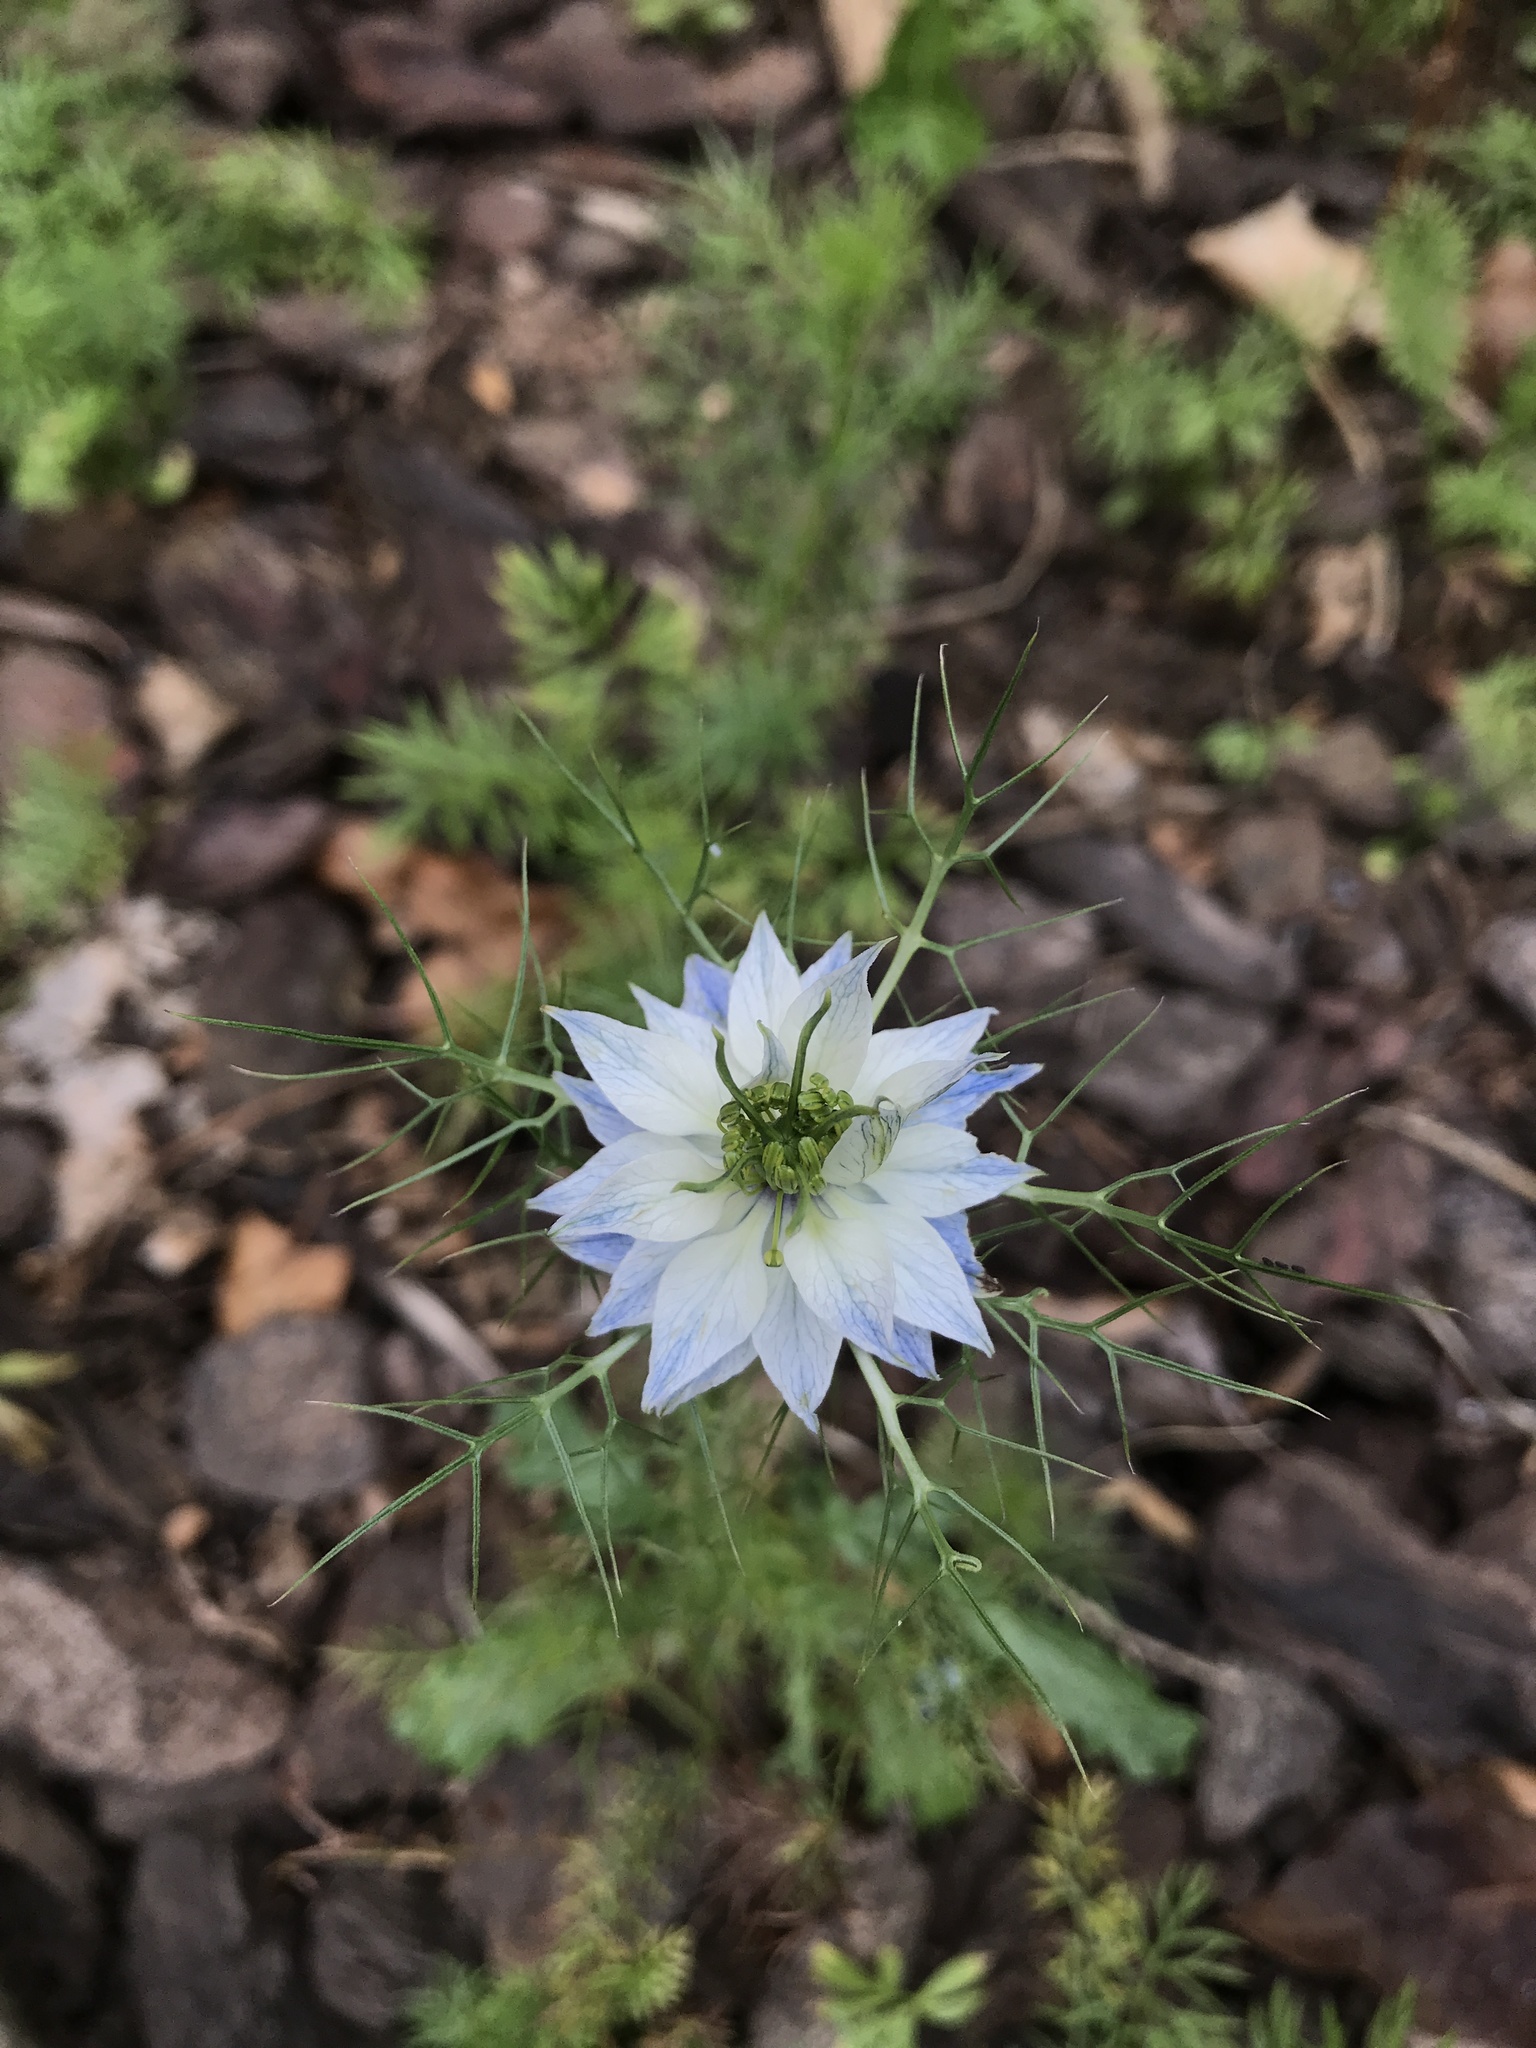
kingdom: Plantae
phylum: Tracheophyta
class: Magnoliopsida
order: Ranunculales
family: Ranunculaceae
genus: Nigella
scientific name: Nigella damascena
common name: Love-in-a-mist
